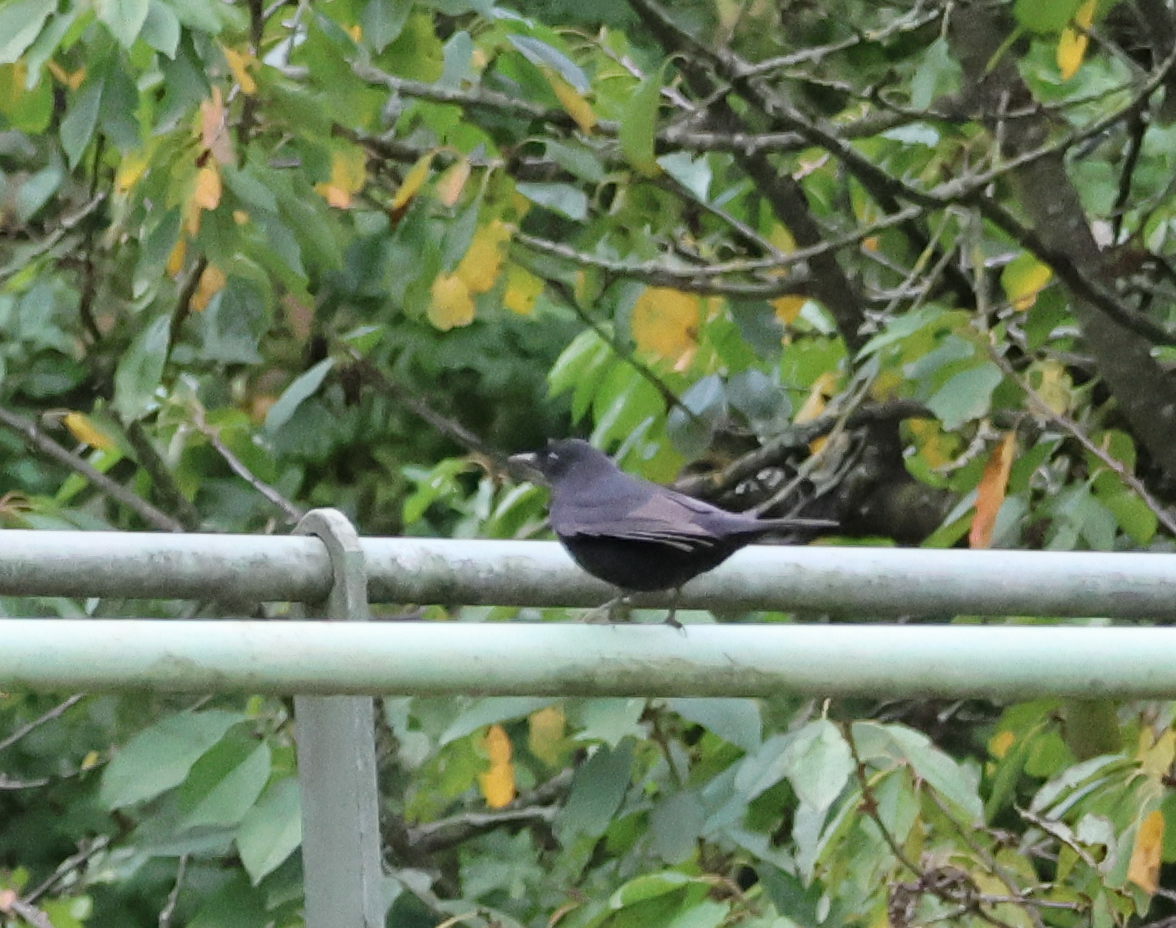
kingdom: Animalia
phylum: Chordata
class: Aves
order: Passeriformes
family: Turdidae
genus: Turdus
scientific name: Turdus merula
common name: Common blackbird
